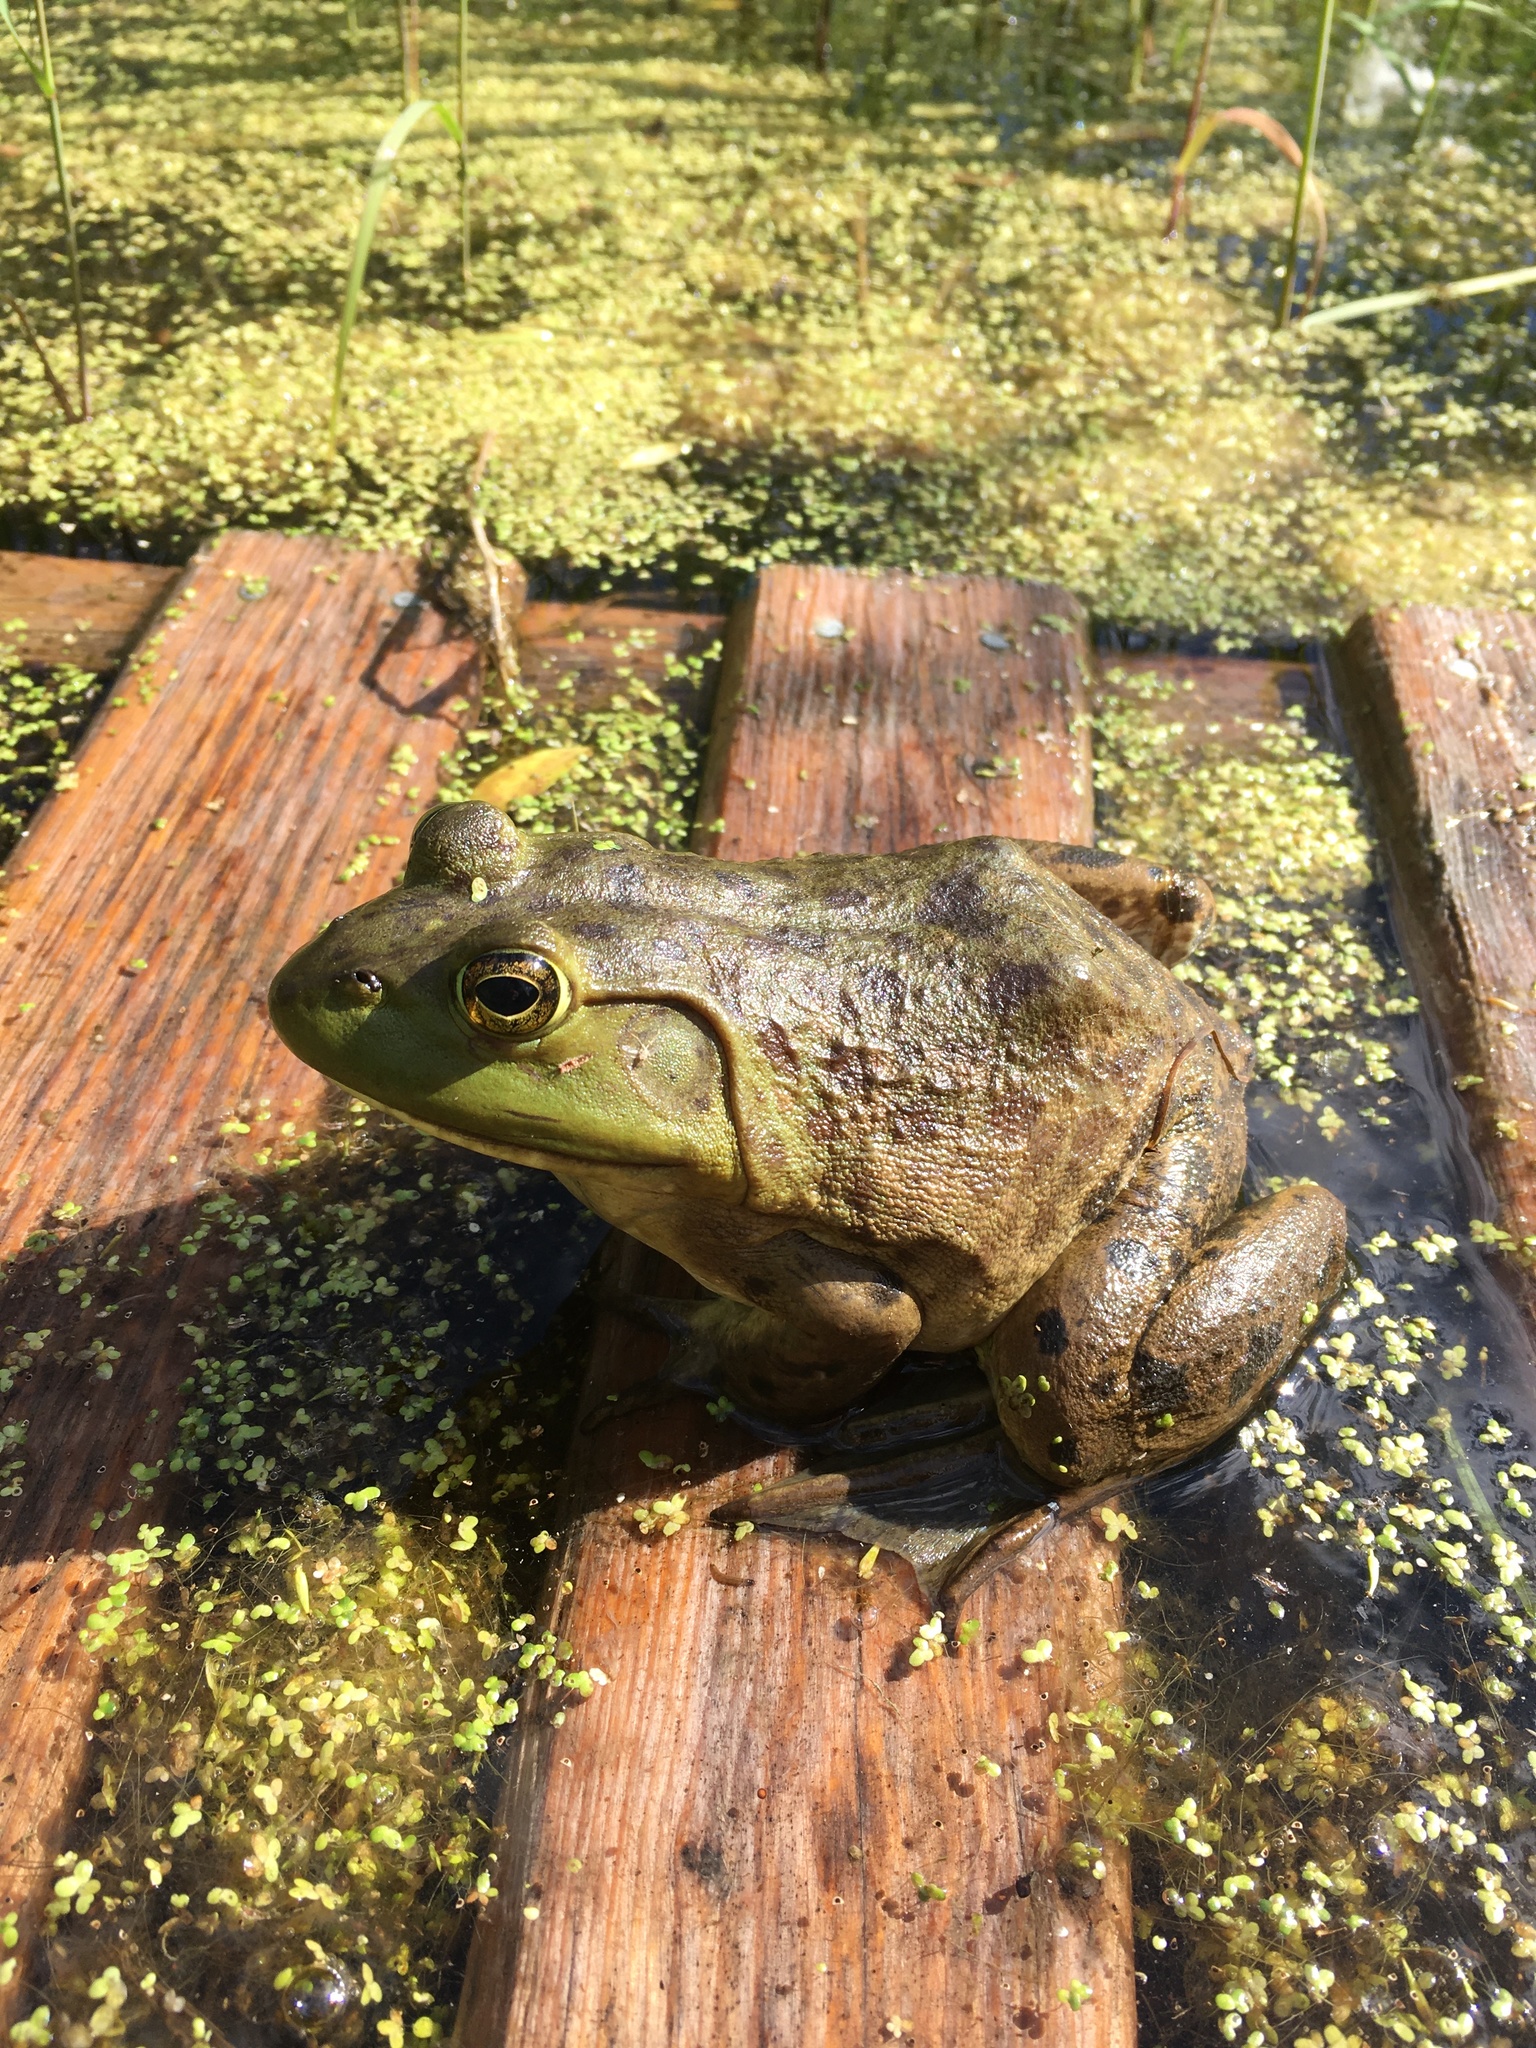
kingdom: Animalia
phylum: Chordata
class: Amphibia
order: Anura
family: Ranidae
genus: Lithobates
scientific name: Lithobates catesbeianus
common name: American bullfrog
